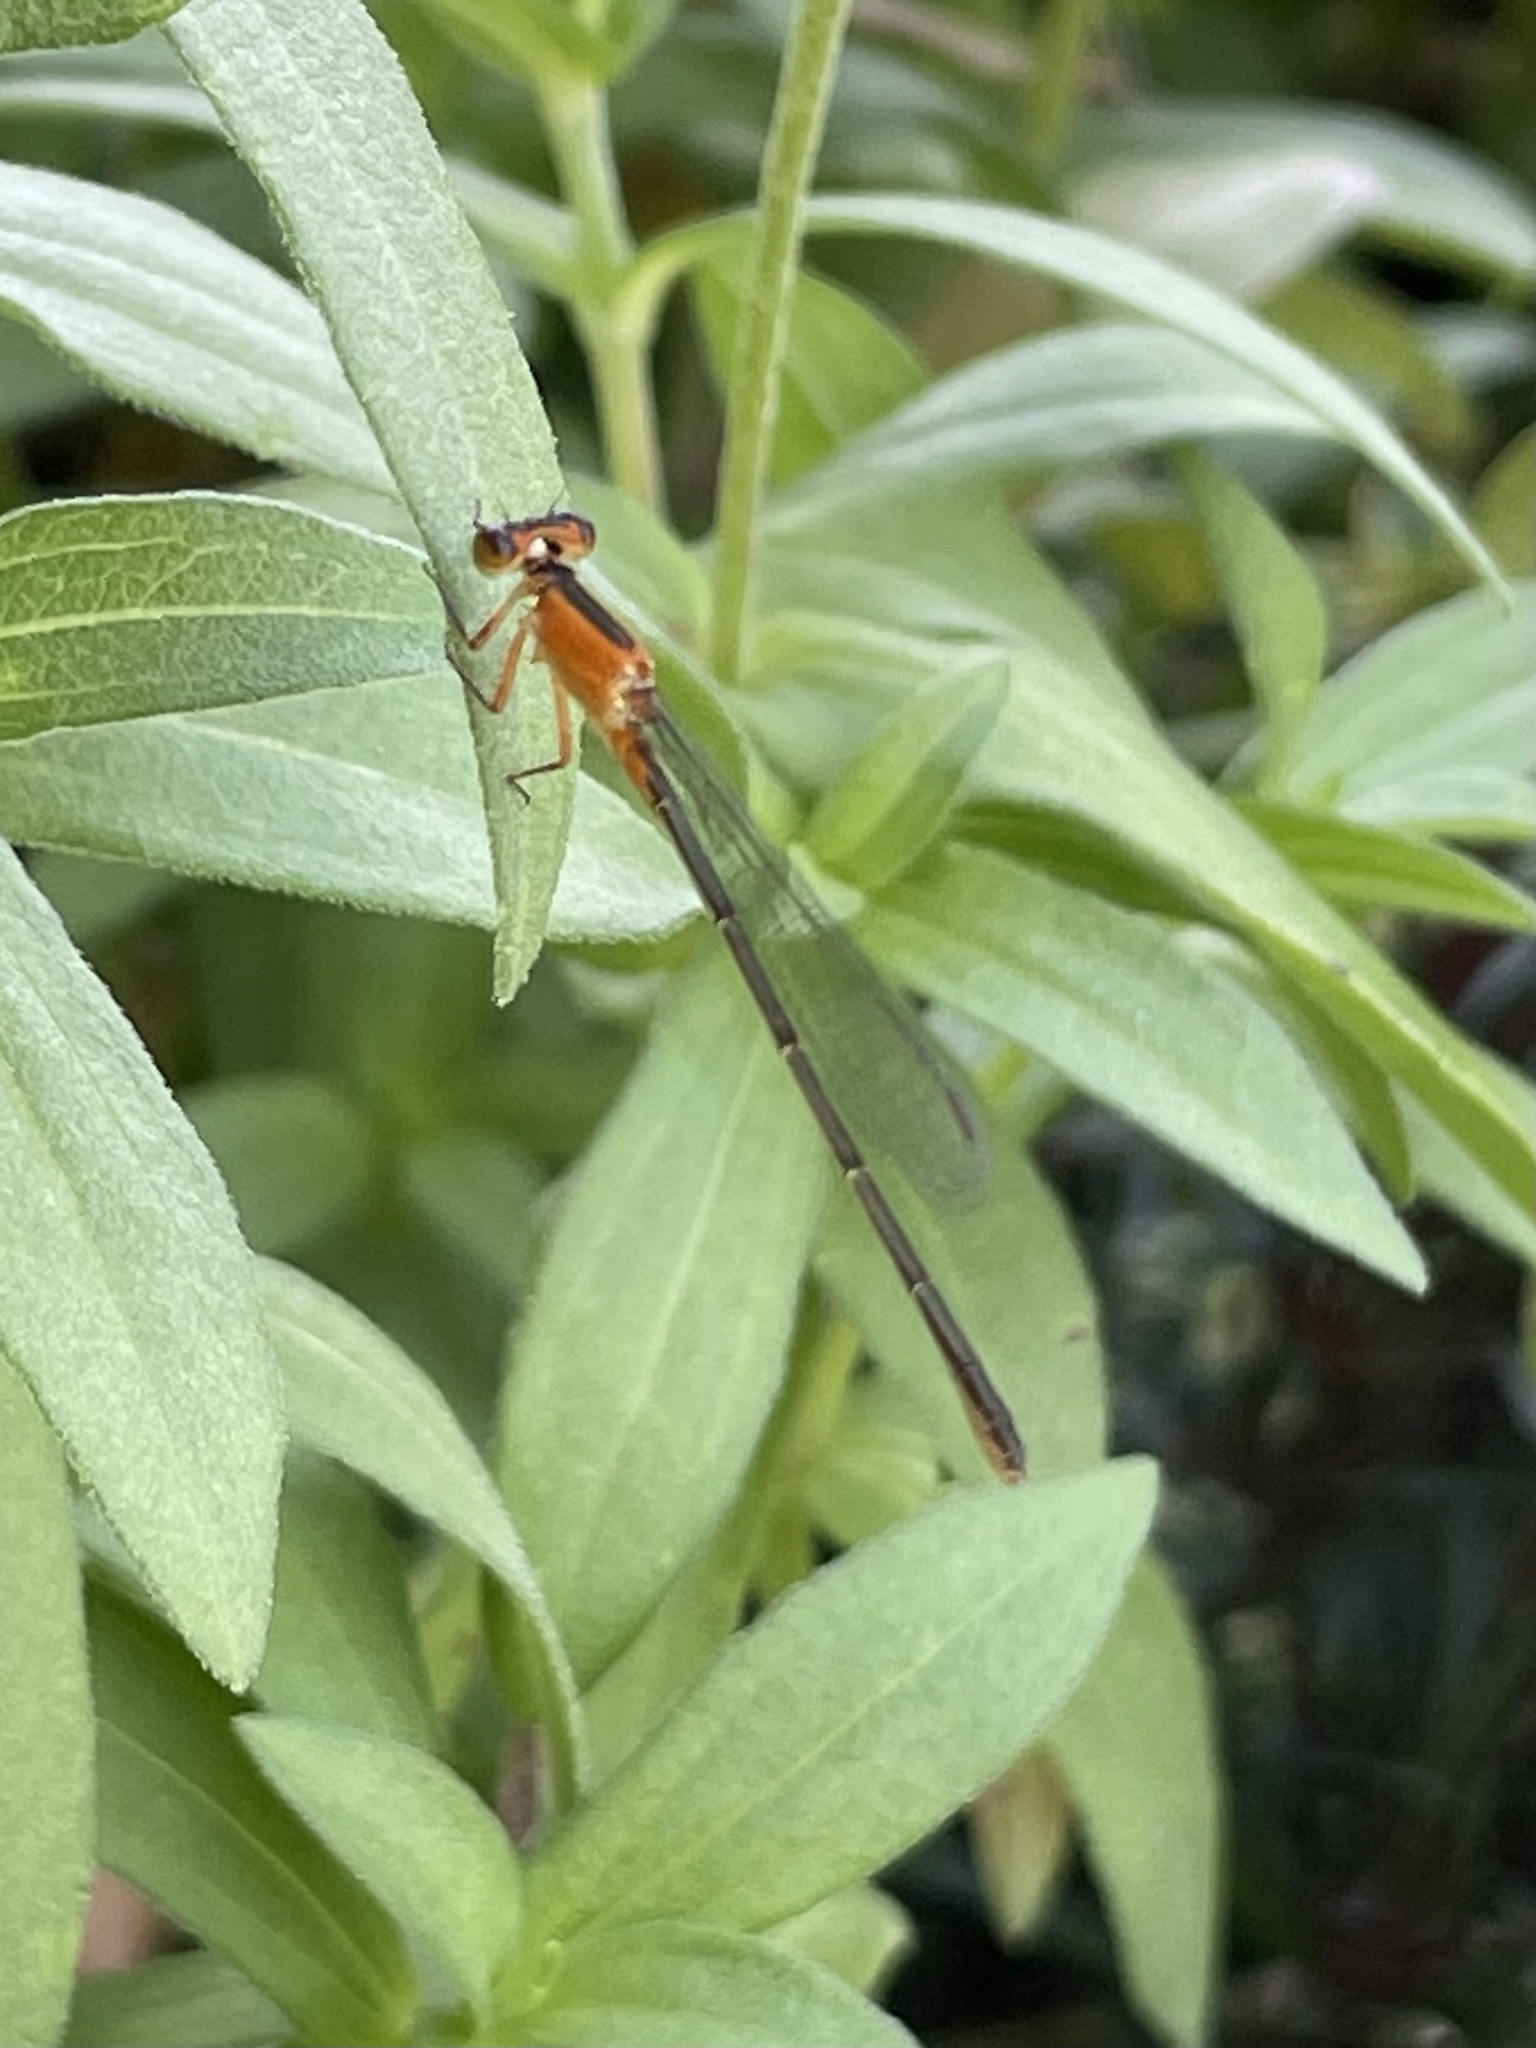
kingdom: Animalia
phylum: Arthropoda
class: Insecta
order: Odonata
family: Coenagrionidae
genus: Ischnura
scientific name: Ischnura ramburii
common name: Rambur's forktail
